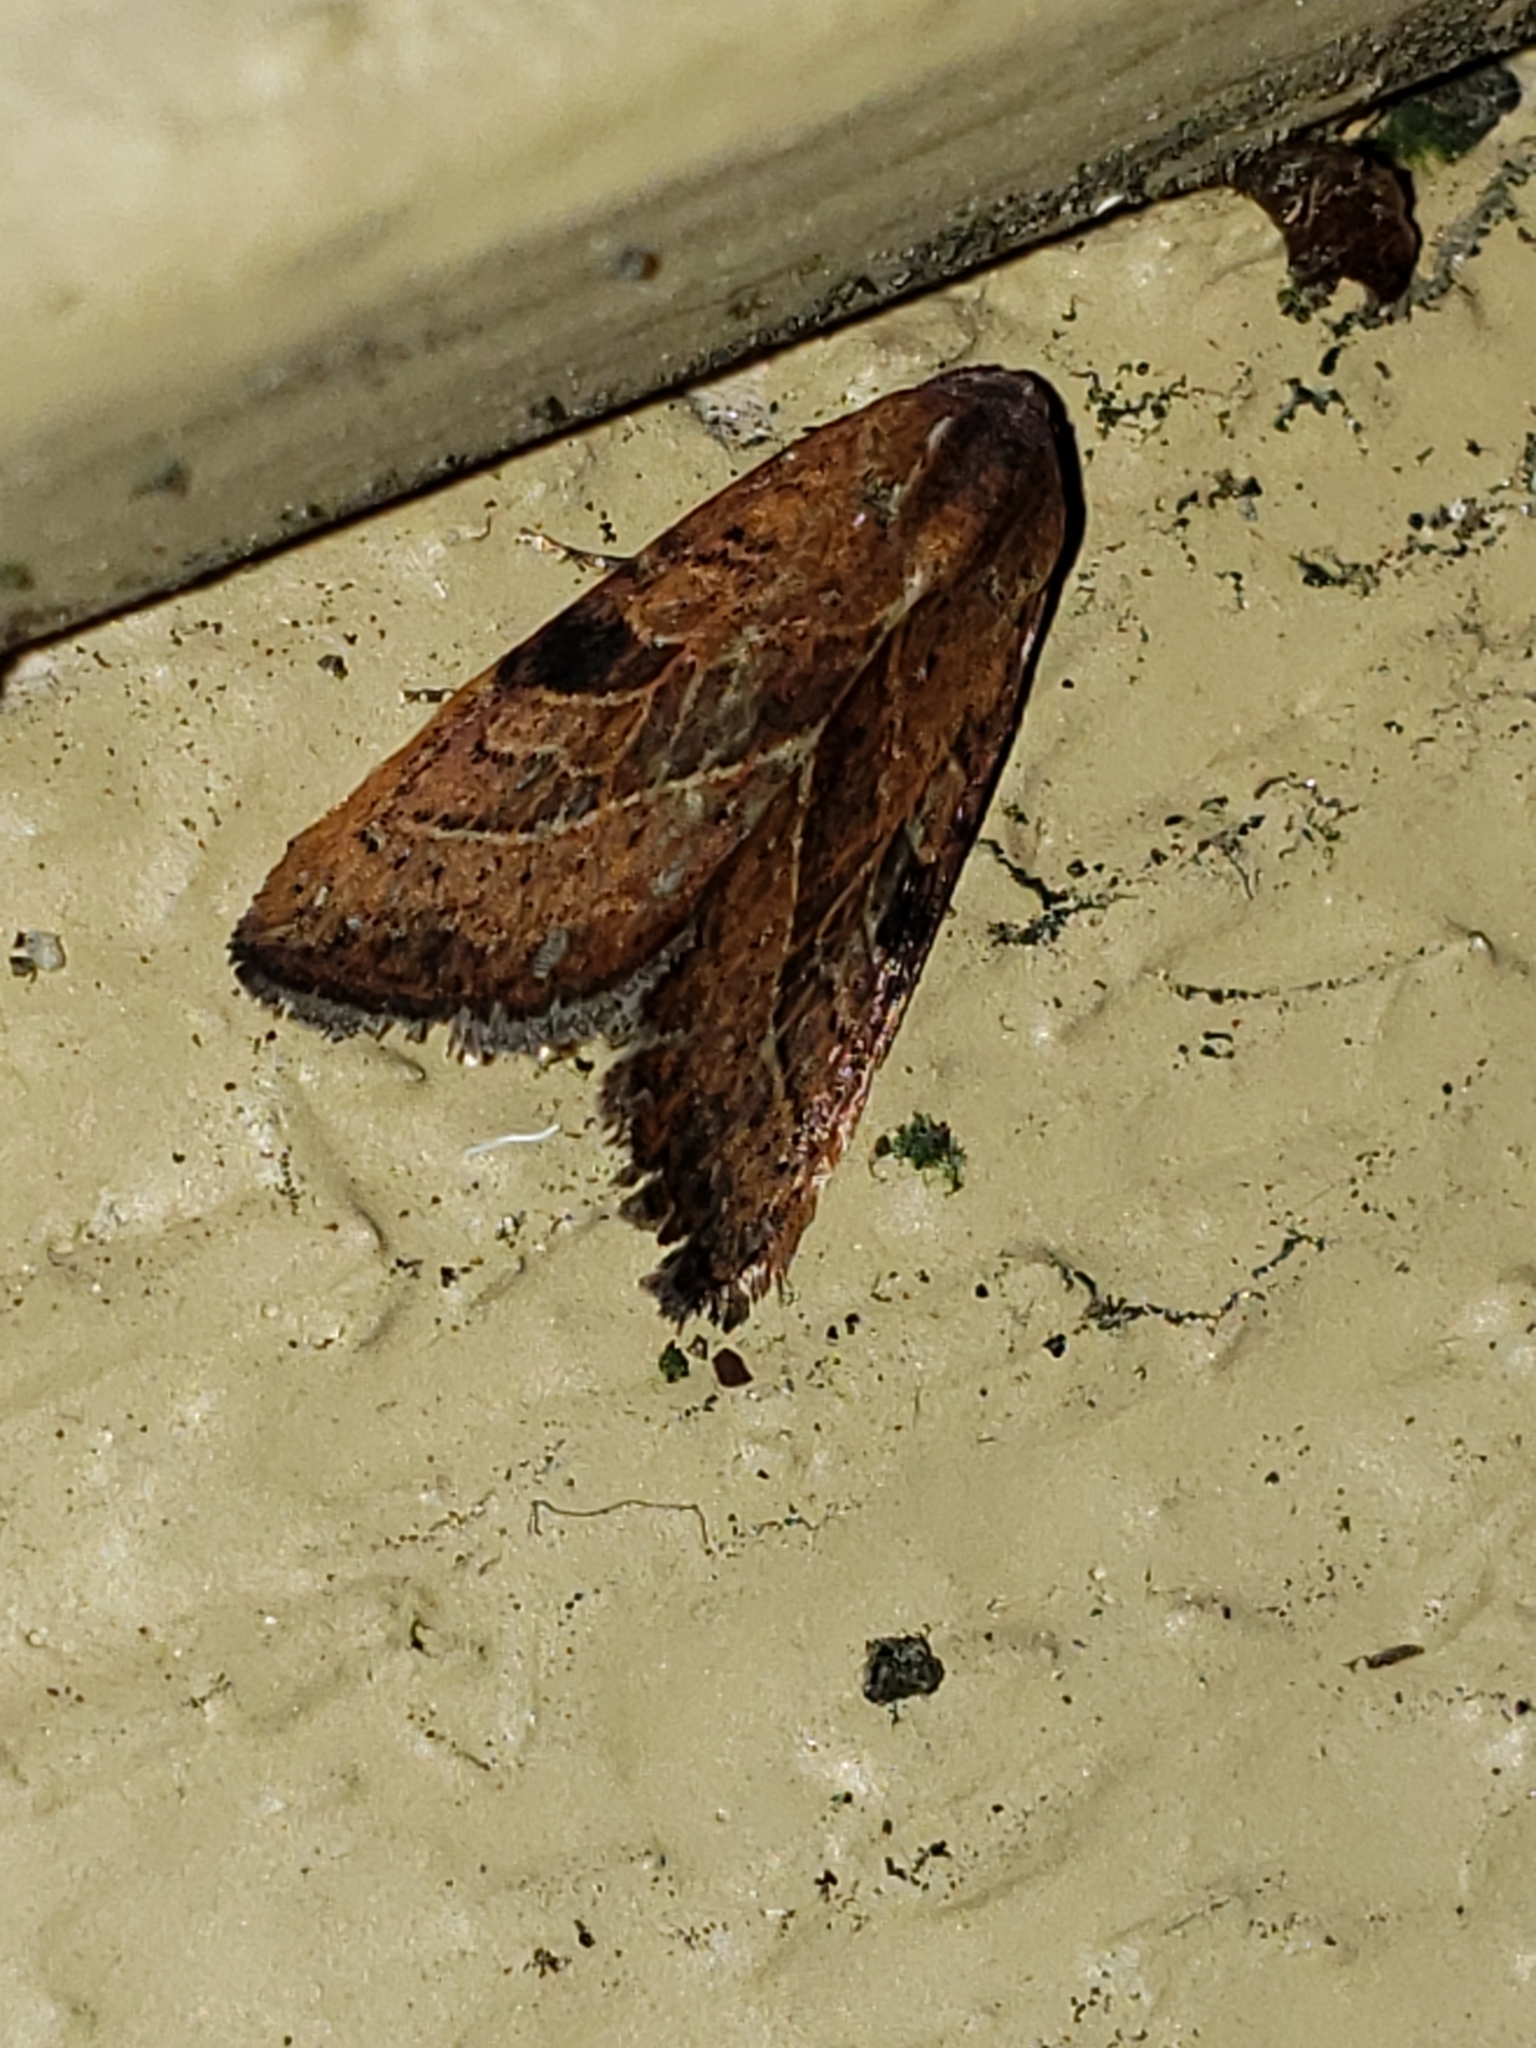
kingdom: Animalia
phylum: Arthropoda
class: Insecta
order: Lepidoptera
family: Noctuidae
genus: Galgula
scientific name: Galgula partita
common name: Wedgeling
